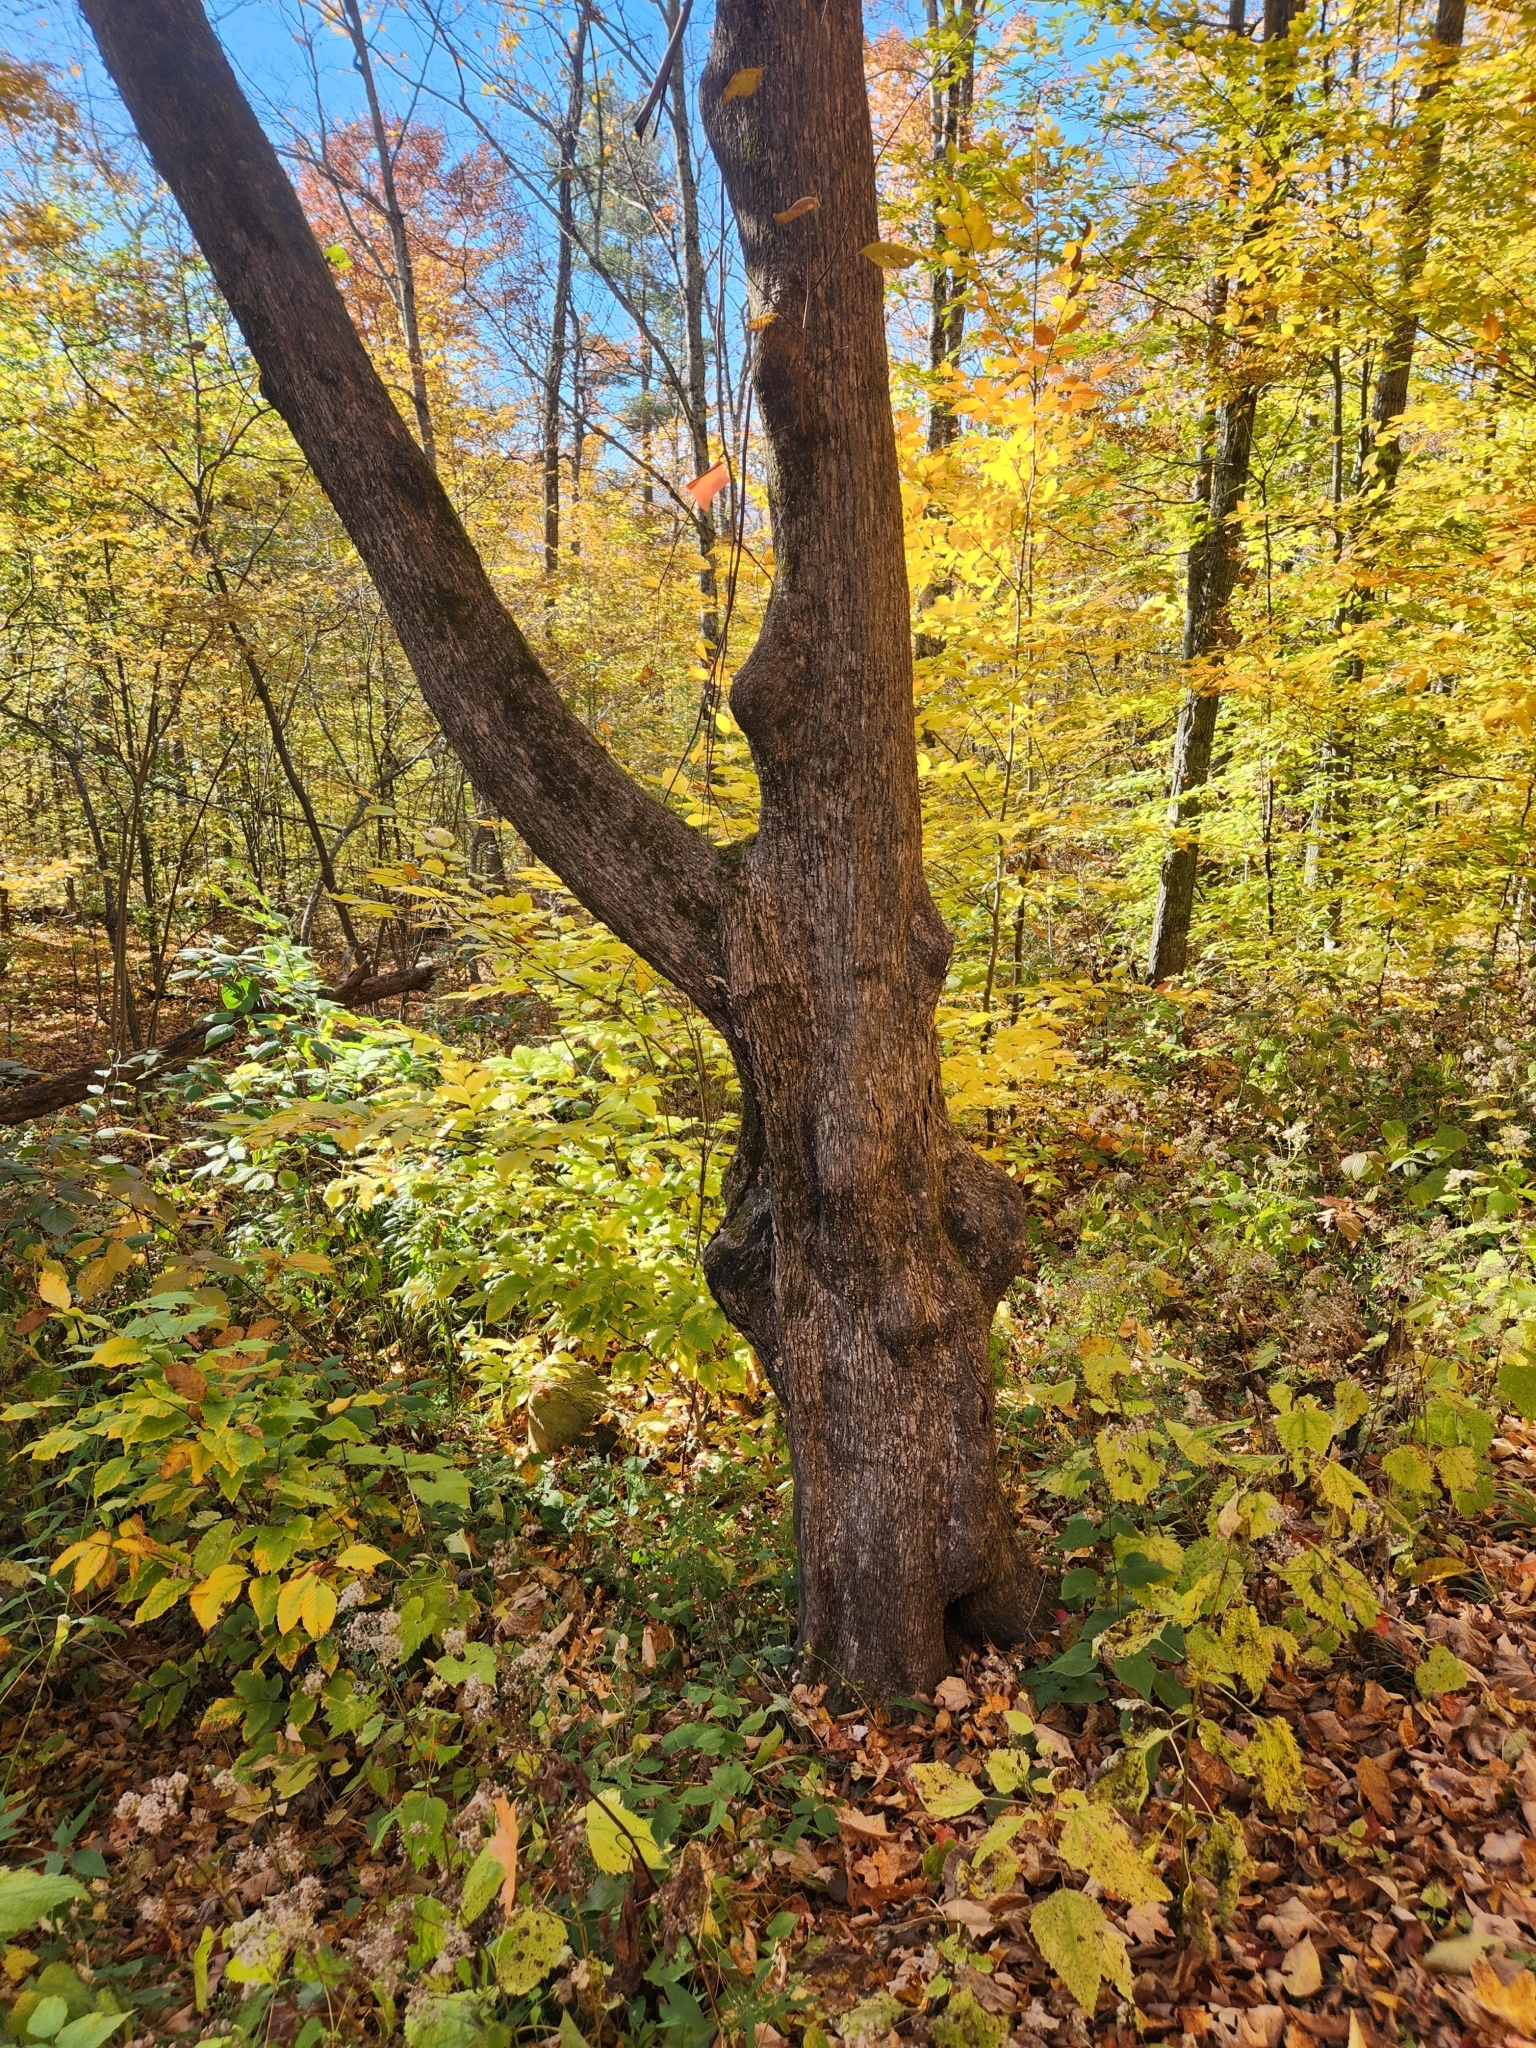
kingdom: Plantae
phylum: Tracheophyta
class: Magnoliopsida
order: Fagales
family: Betulaceae
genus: Ostrya
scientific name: Ostrya virginiana
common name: Ironwood
